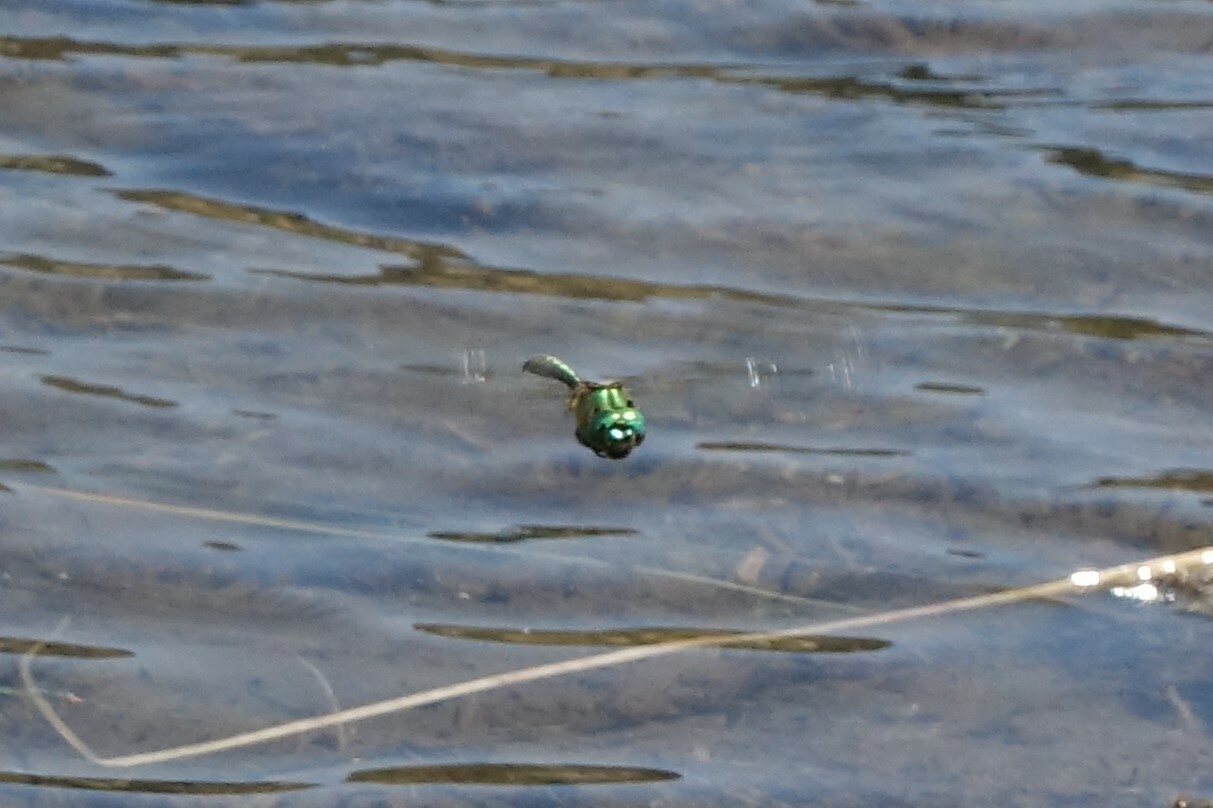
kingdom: Animalia
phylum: Arthropoda
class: Insecta
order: Odonata
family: Corduliidae
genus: Somatochlora
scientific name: Somatochlora metallica
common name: Brilliant emerald
